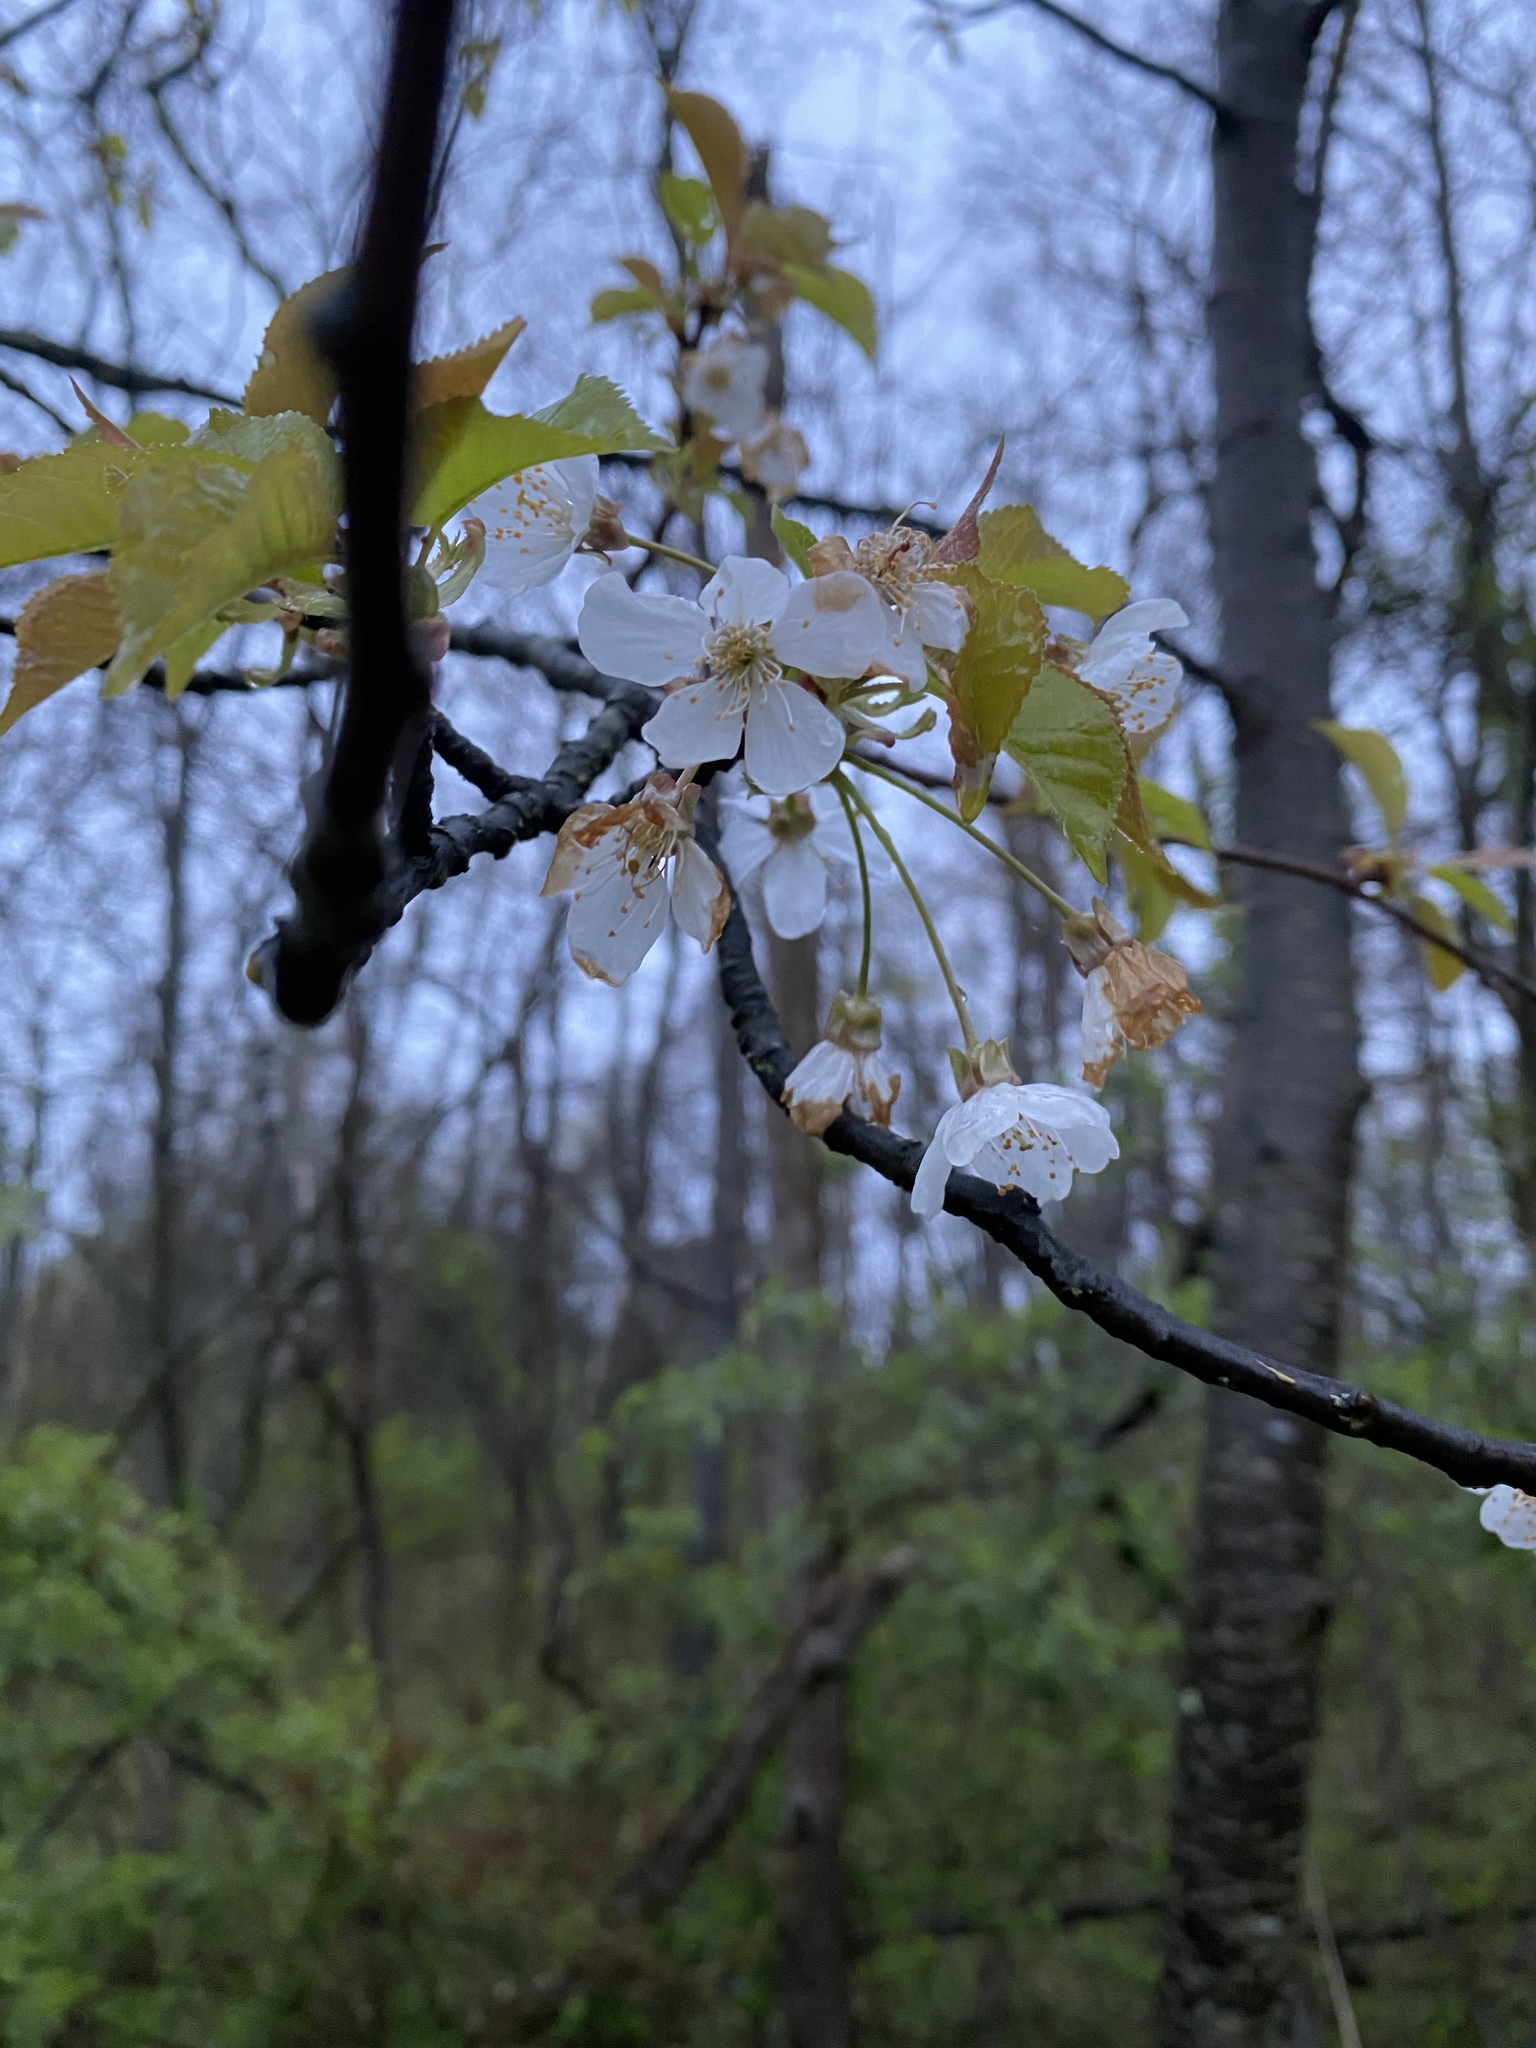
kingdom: Plantae
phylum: Tracheophyta
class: Magnoliopsida
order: Rosales
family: Rosaceae
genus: Prunus
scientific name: Prunus avium
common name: Sweet cherry
